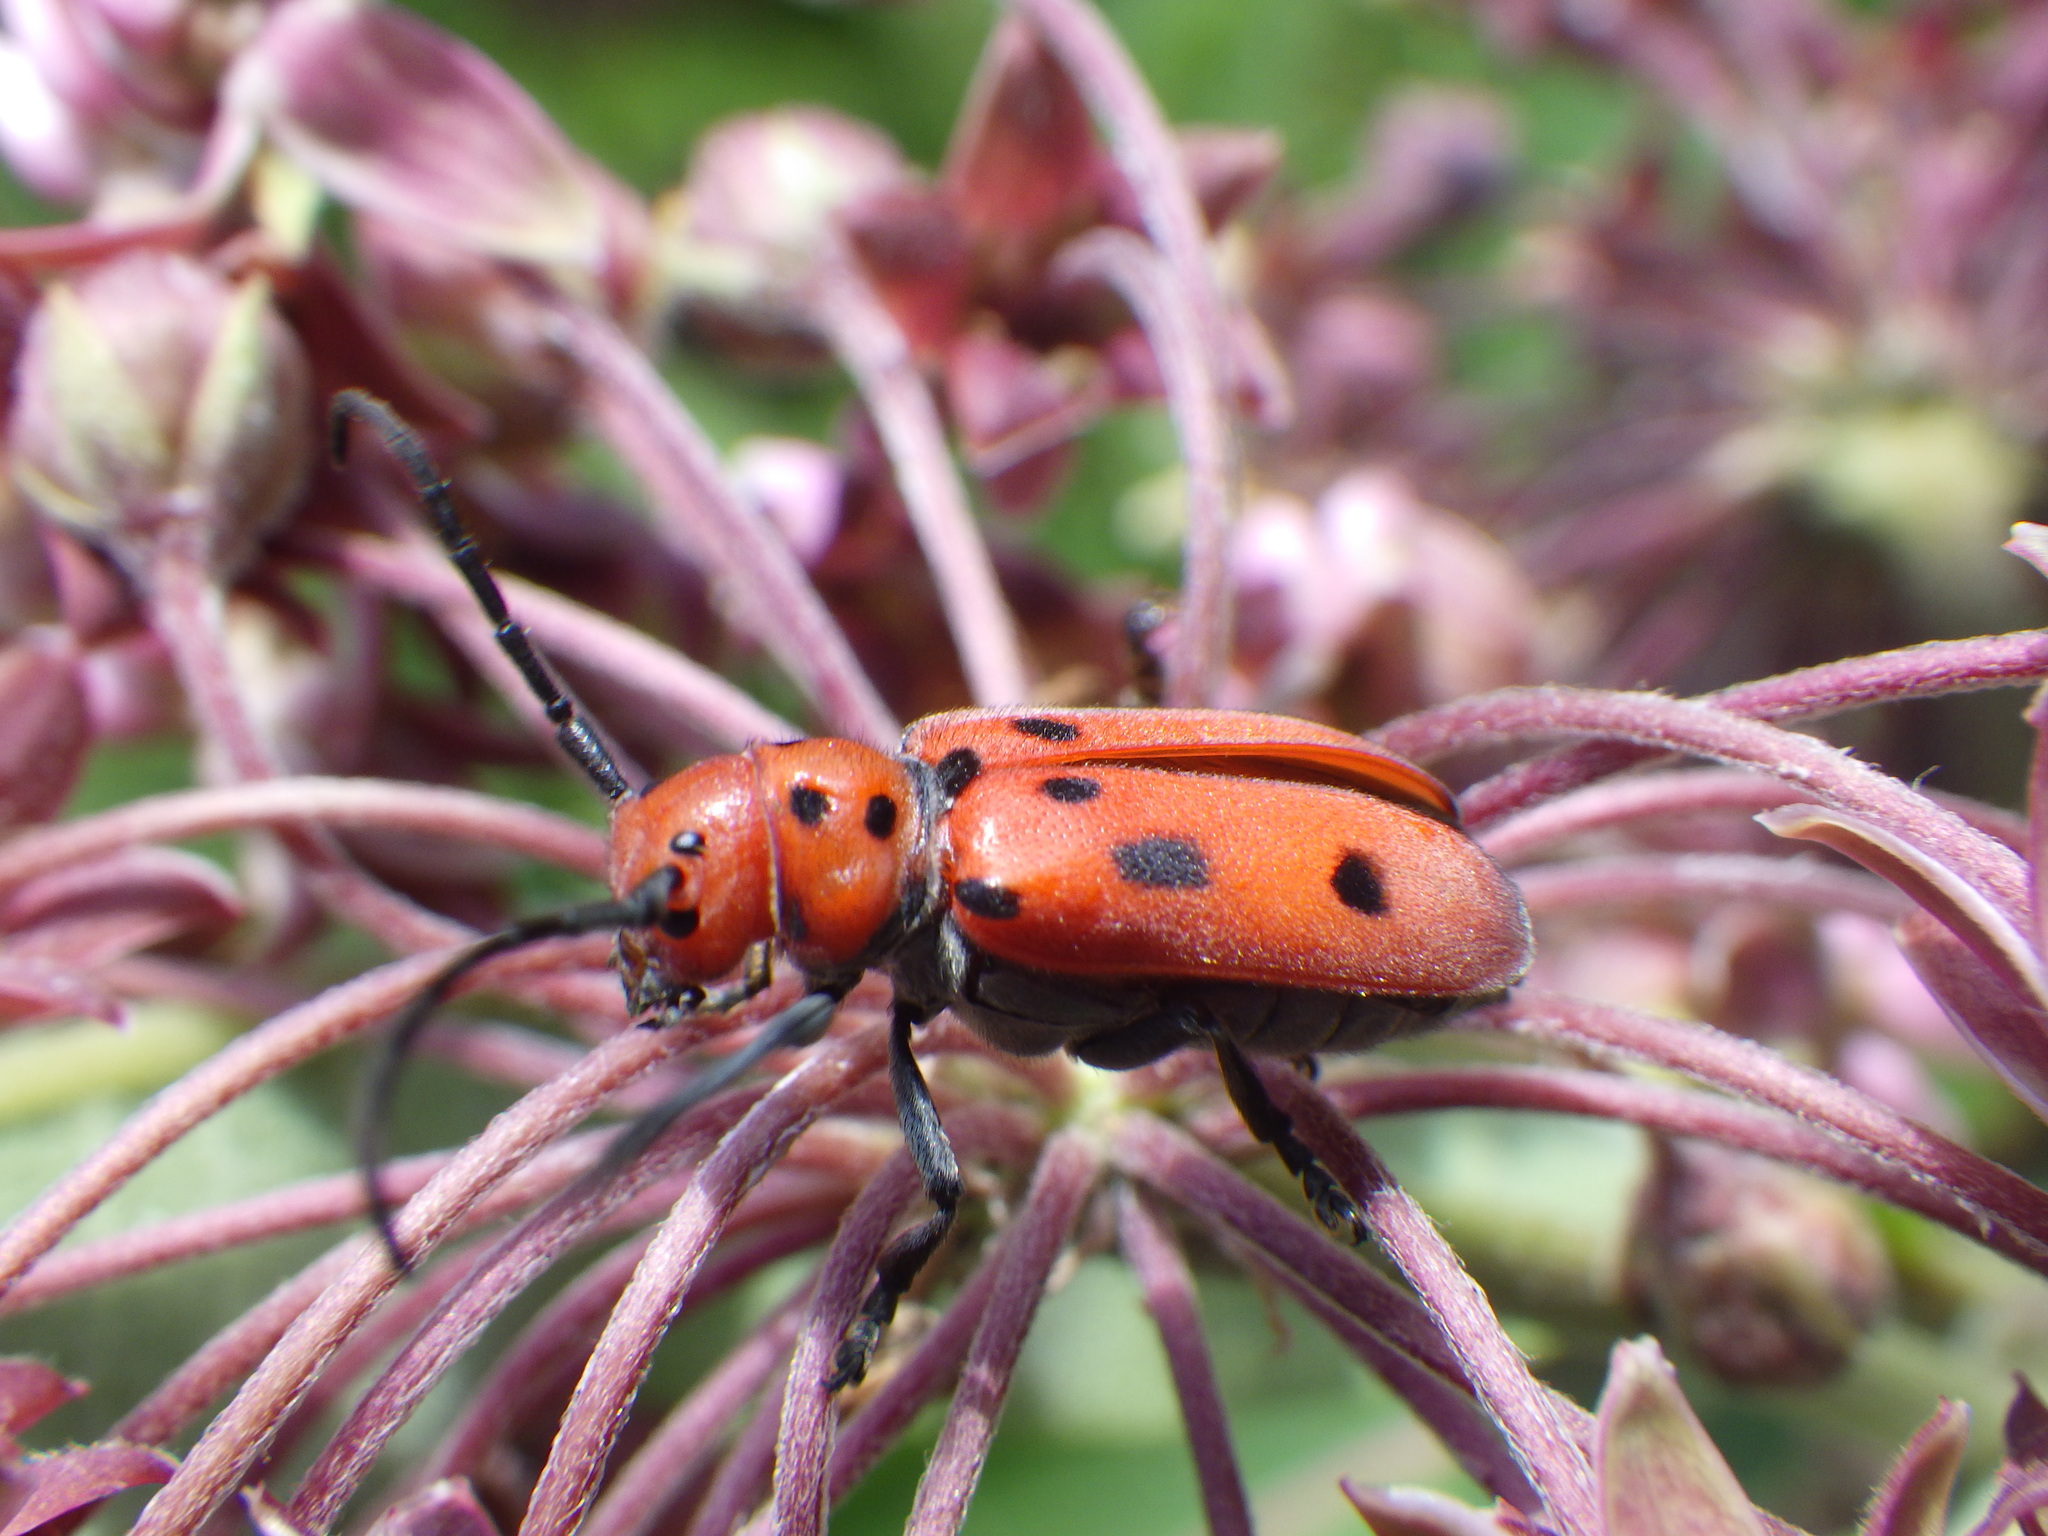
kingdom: Animalia
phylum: Arthropoda
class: Insecta
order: Coleoptera
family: Cerambycidae
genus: Tetraopes
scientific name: Tetraopes tetrophthalmus
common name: Red milkweed beetle
